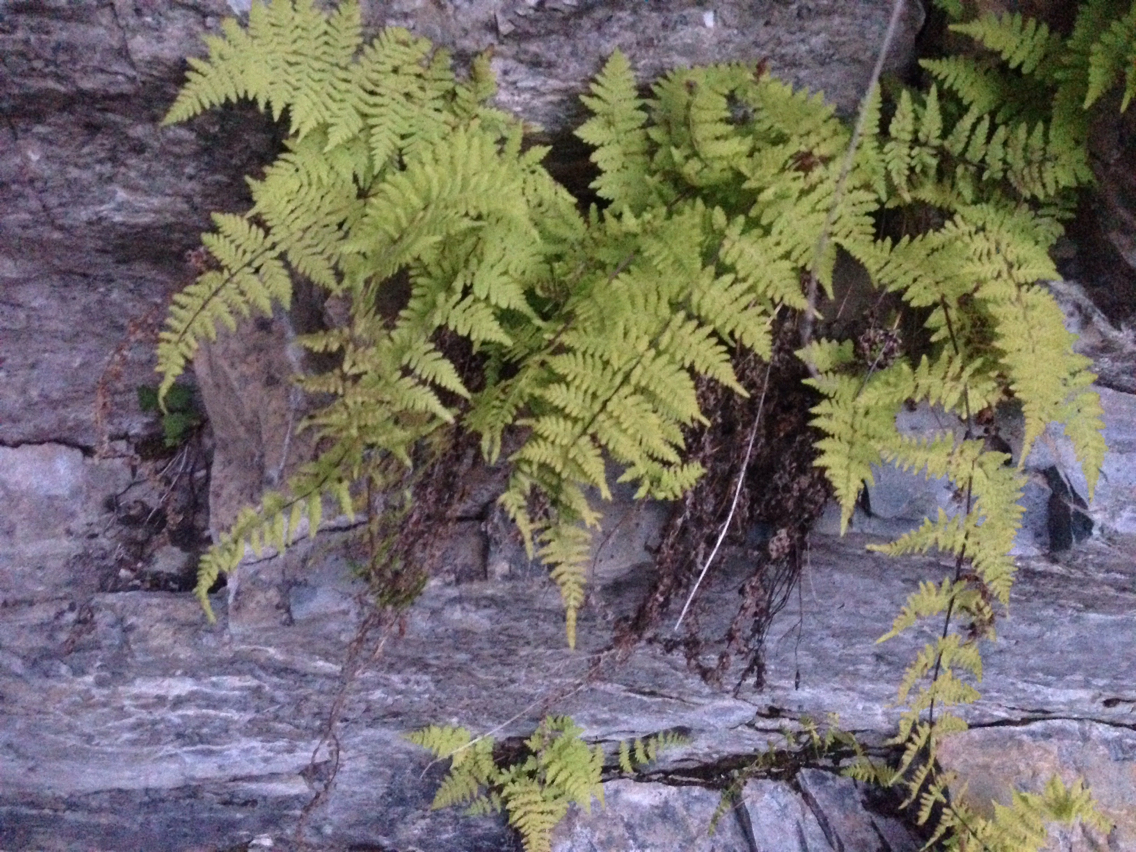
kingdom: Plantae
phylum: Tracheophyta
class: Polypodiopsida
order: Polypodiales
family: Cystopteridaceae
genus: Cystopteris
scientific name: Cystopteris bulbifera
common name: Bulblet bladder fern
